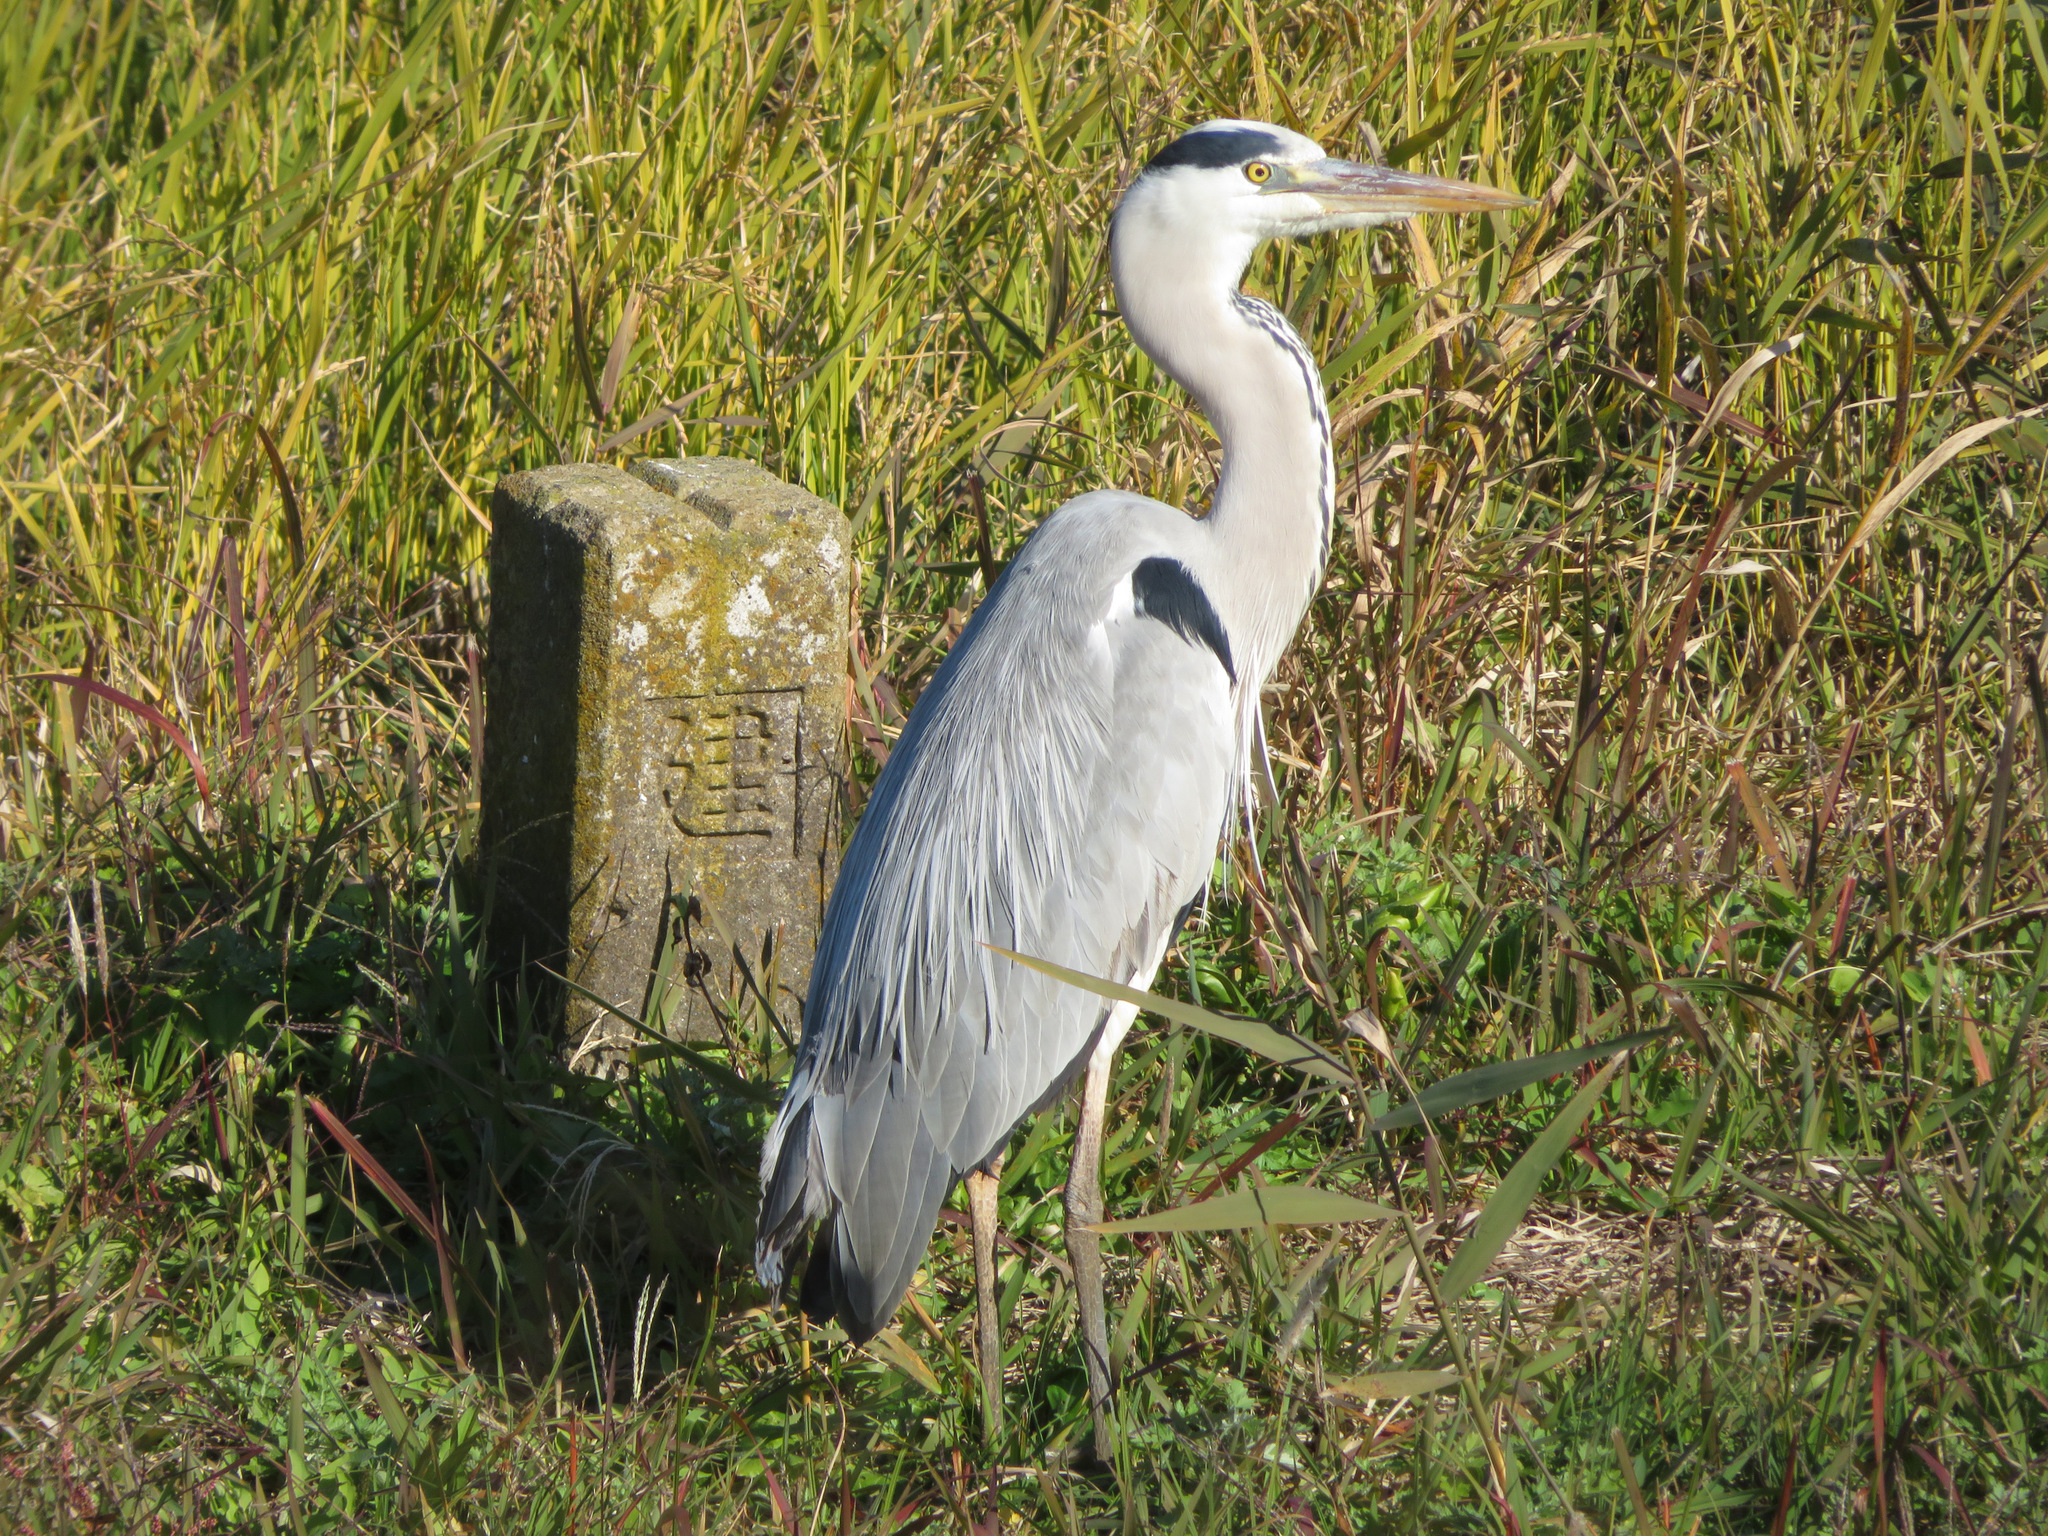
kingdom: Animalia
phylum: Chordata
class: Aves
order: Pelecaniformes
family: Ardeidae
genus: Ardea
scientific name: Ardea cinerea
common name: Grey heron
